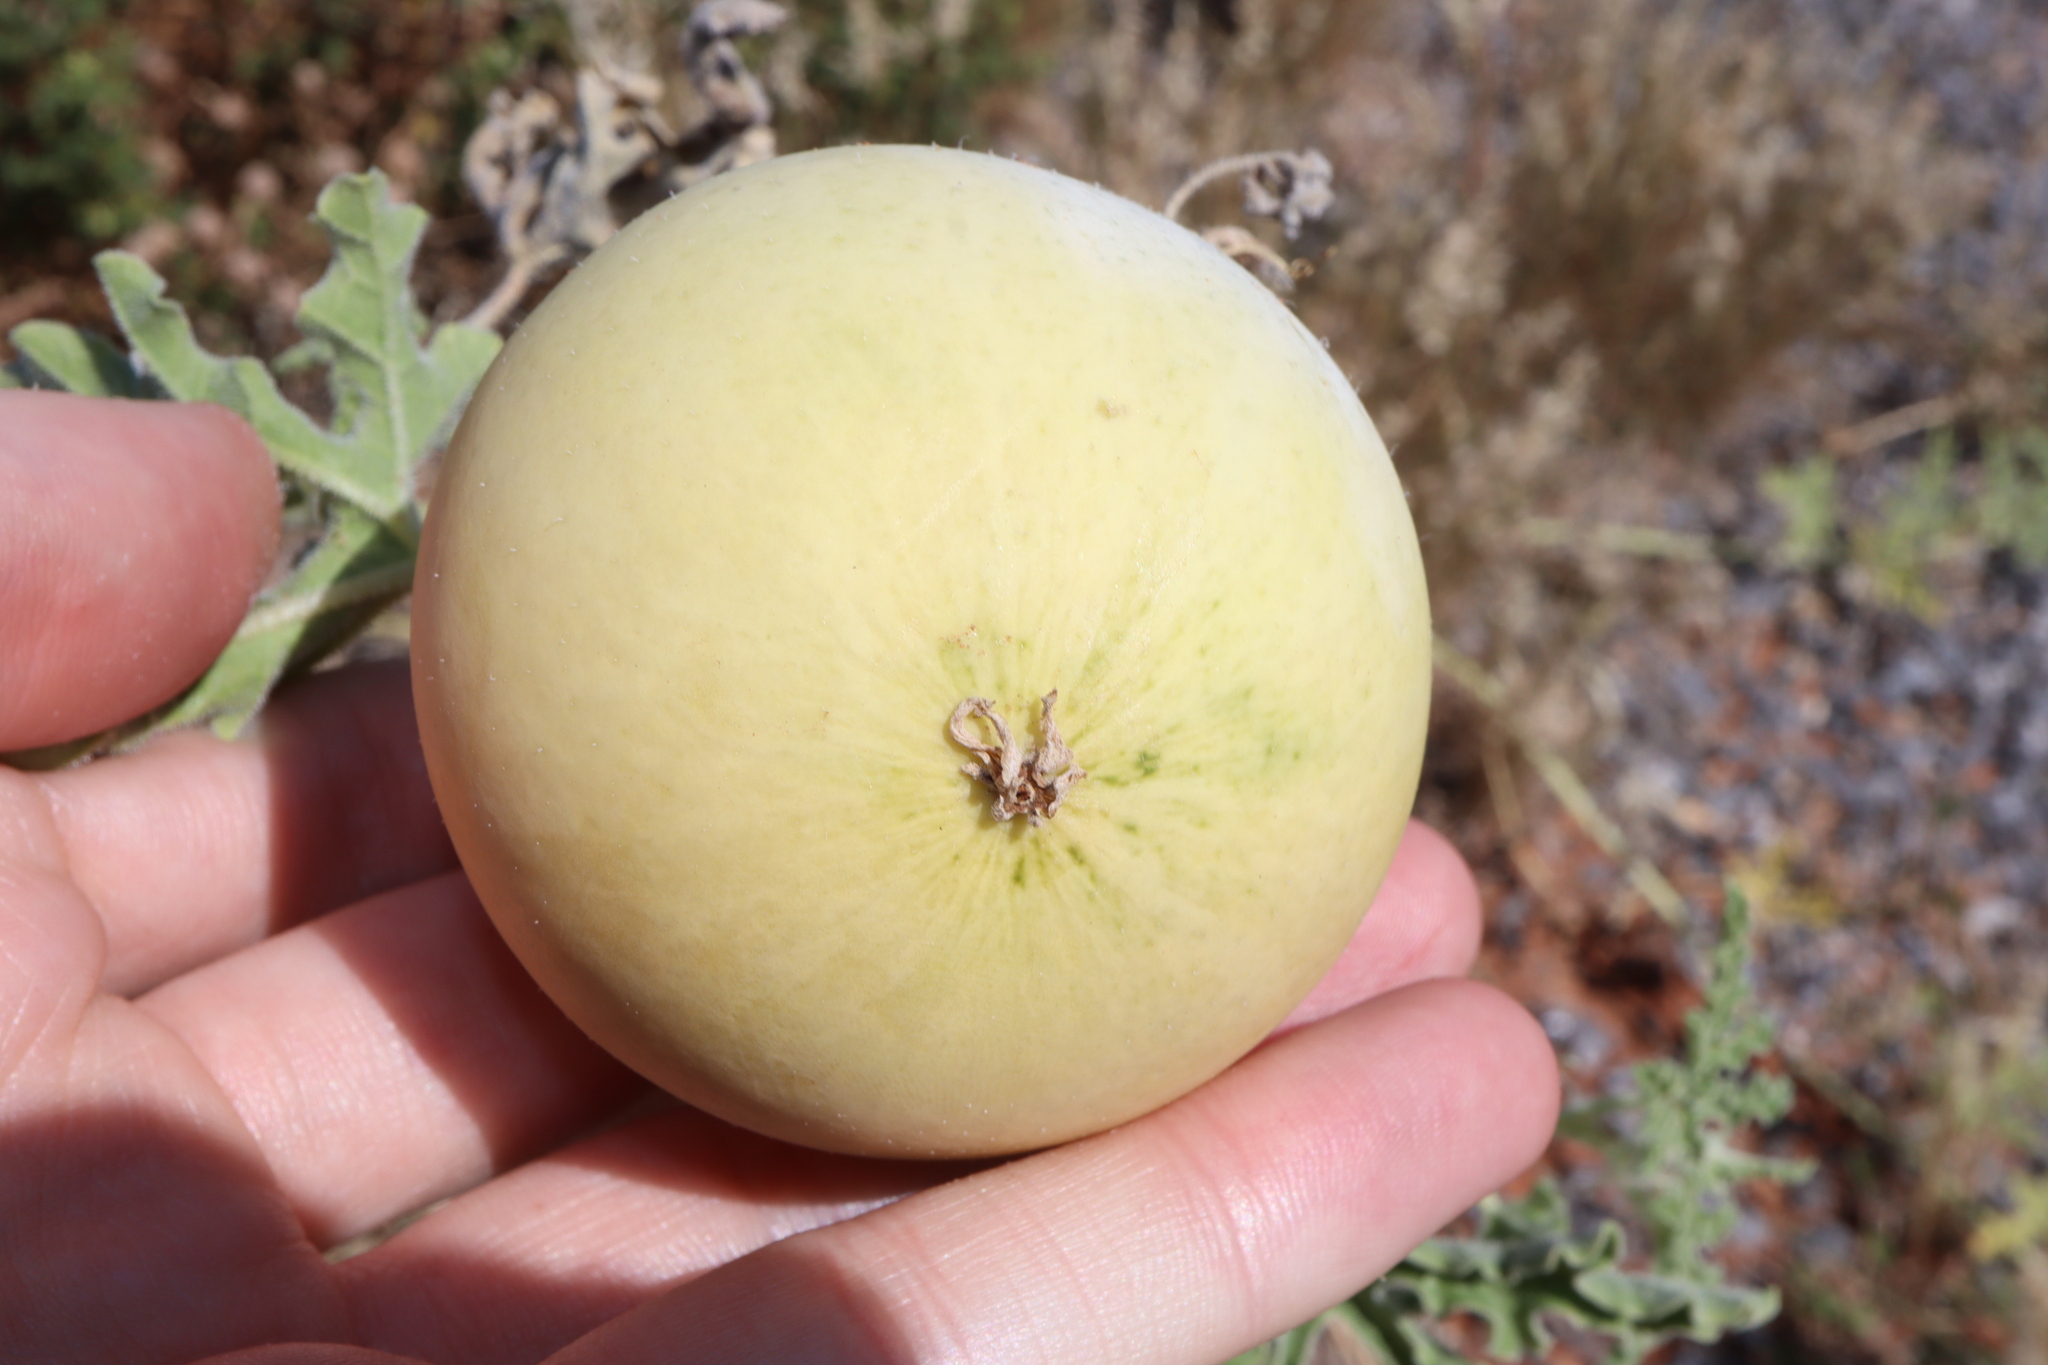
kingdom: Plantae
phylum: Tracheophyta
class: Magnoliopsida
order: Cucurbitales
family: Cucurbitaceae
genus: Citrullus
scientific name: Citrullus colocynthis
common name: Colocynth
